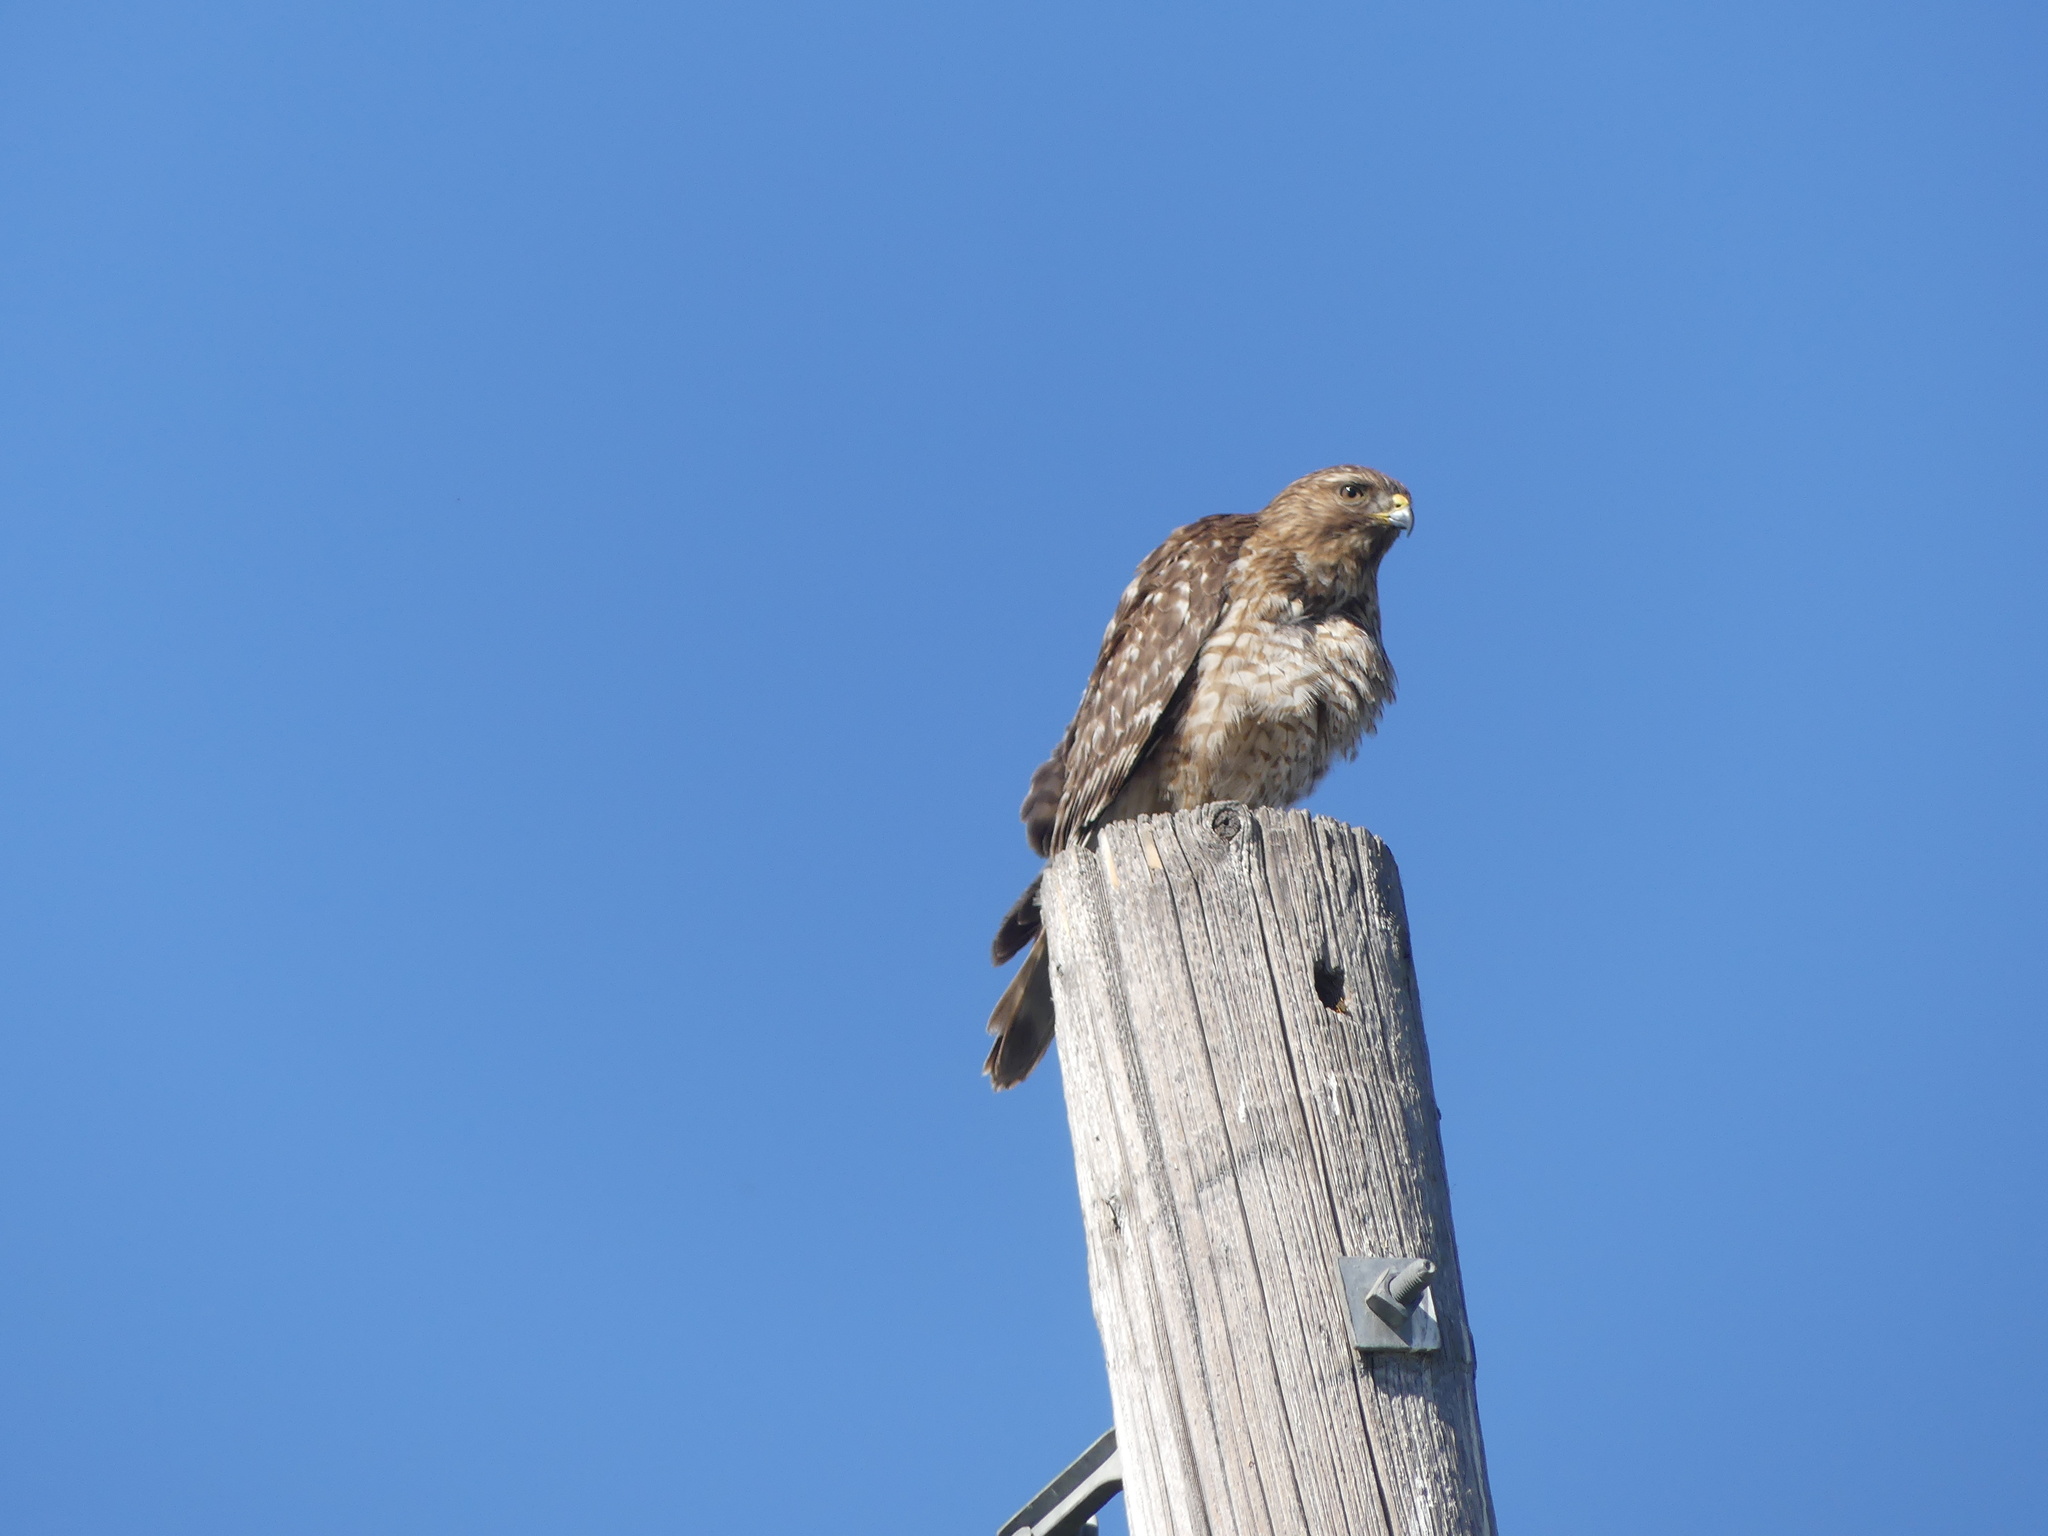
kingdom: Animalia
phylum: Chordata
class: Aves
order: Accipitriformes
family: Accipitridae
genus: Buteo
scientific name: Buteo lineatus
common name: Red-shouldered hawk
